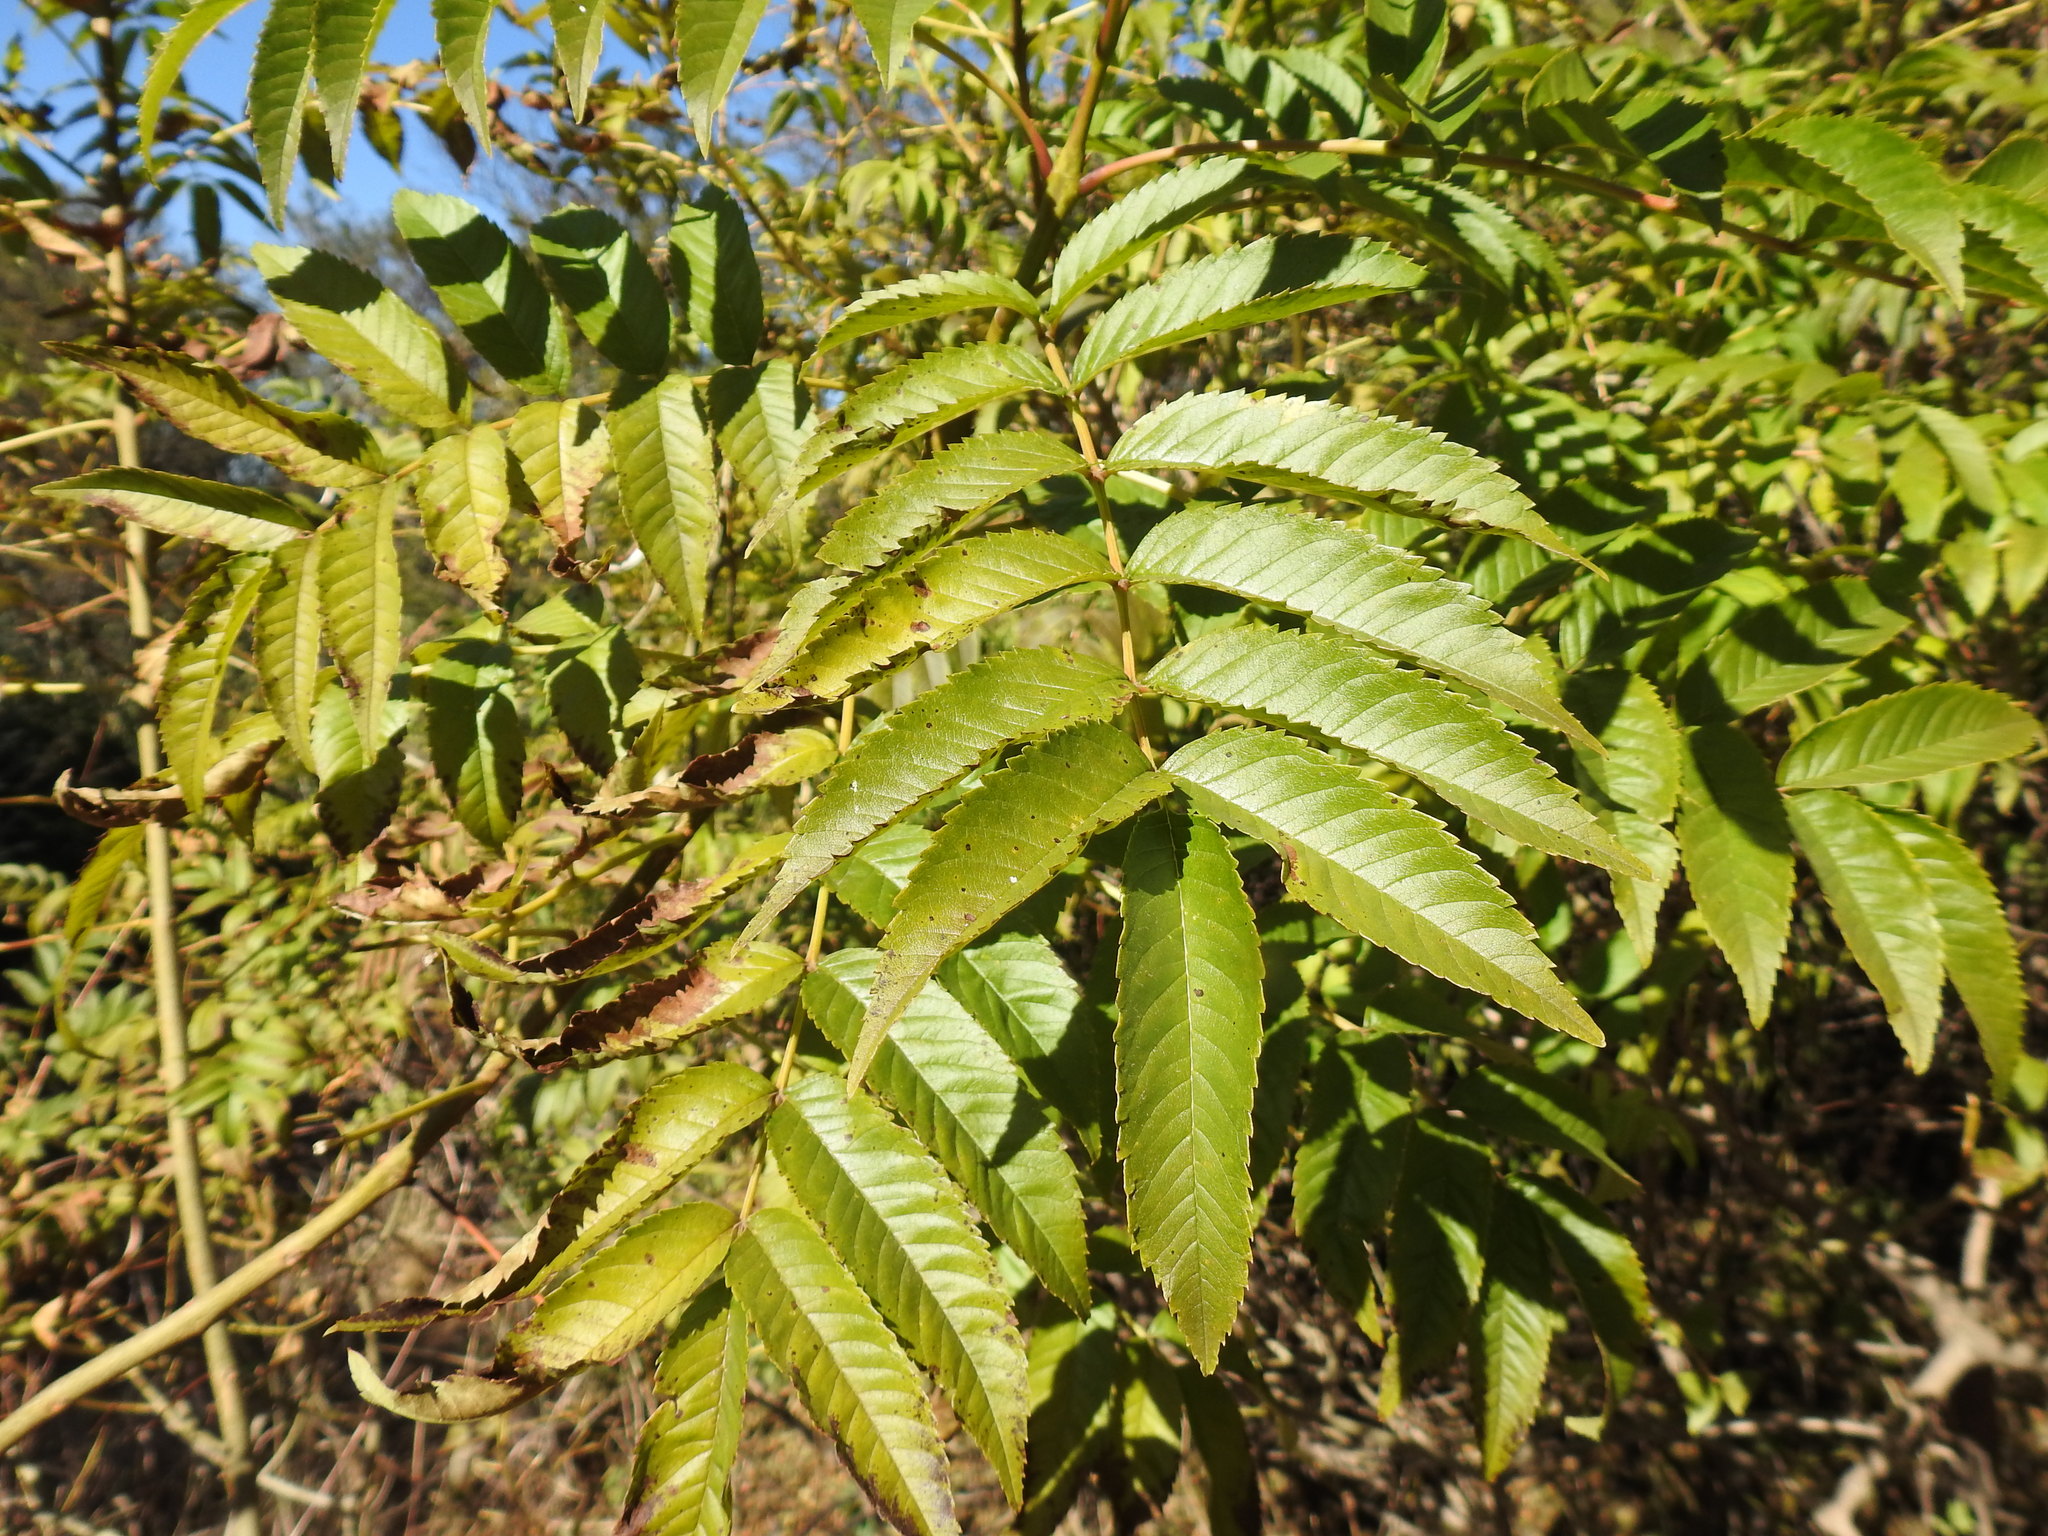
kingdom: Plantae
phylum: Tracheophyta
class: Magnoliopsida
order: Lamiales
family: Bignoniaceae
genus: Tecoma
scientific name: Tecoma stans
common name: Yellow trumpetbush
